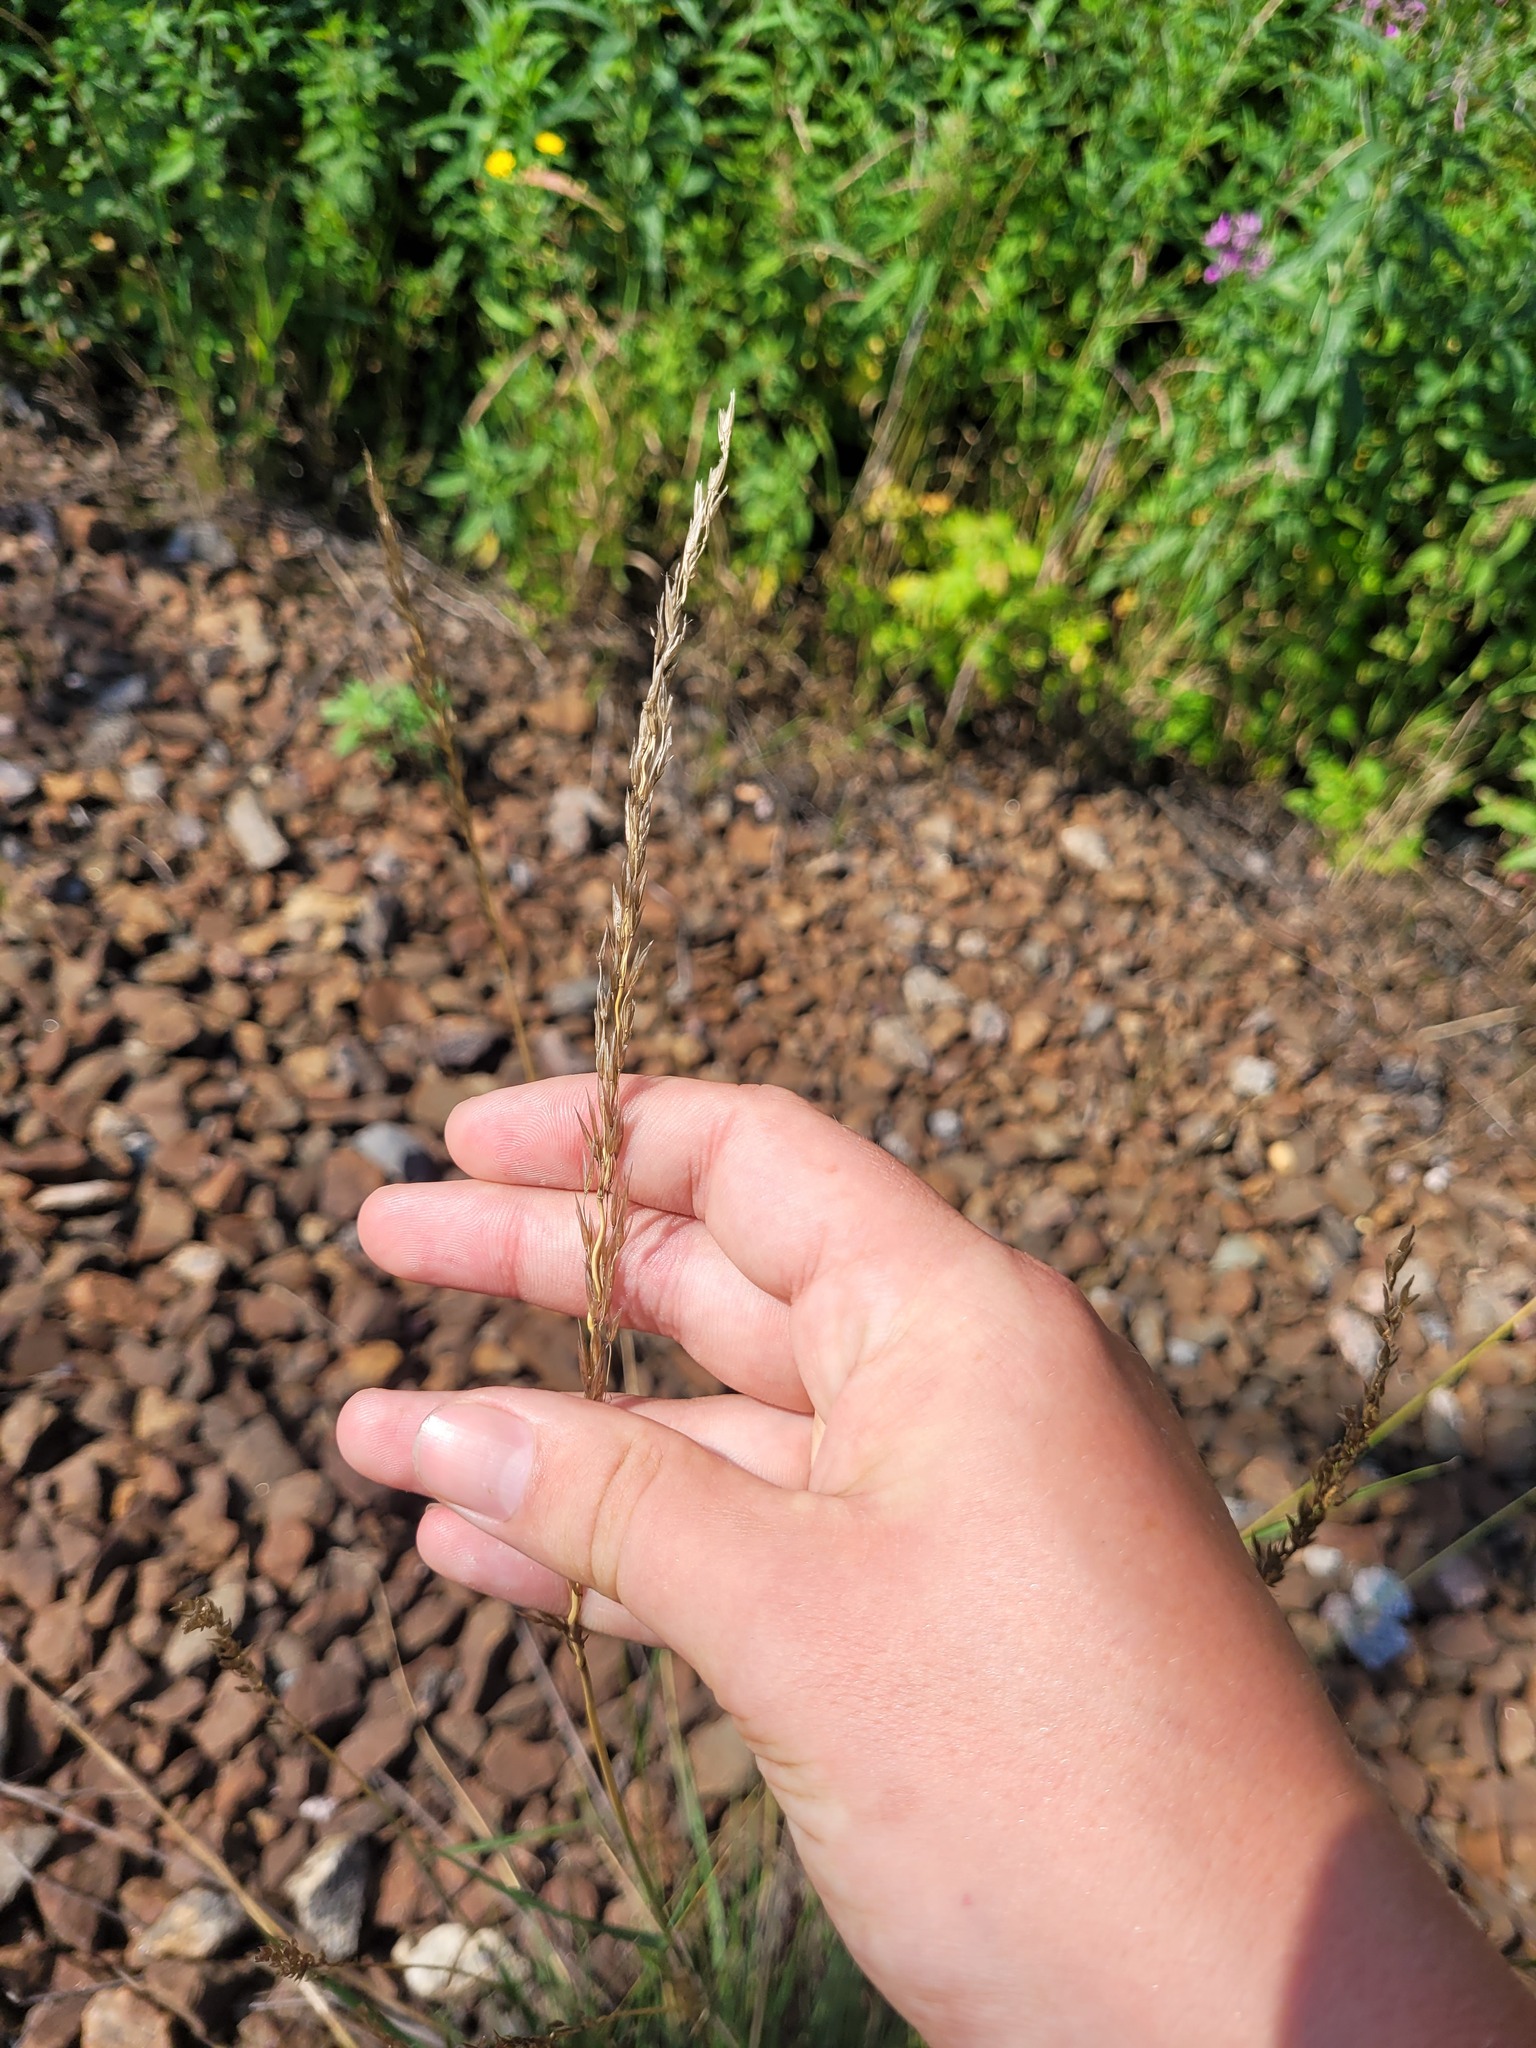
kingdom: Plantae
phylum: Tracheophyta
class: Liliopsida
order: Poales
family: Poaceae
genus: Arrhenatherum
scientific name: Arrhenatherum elatius
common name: Tall oatgrass
